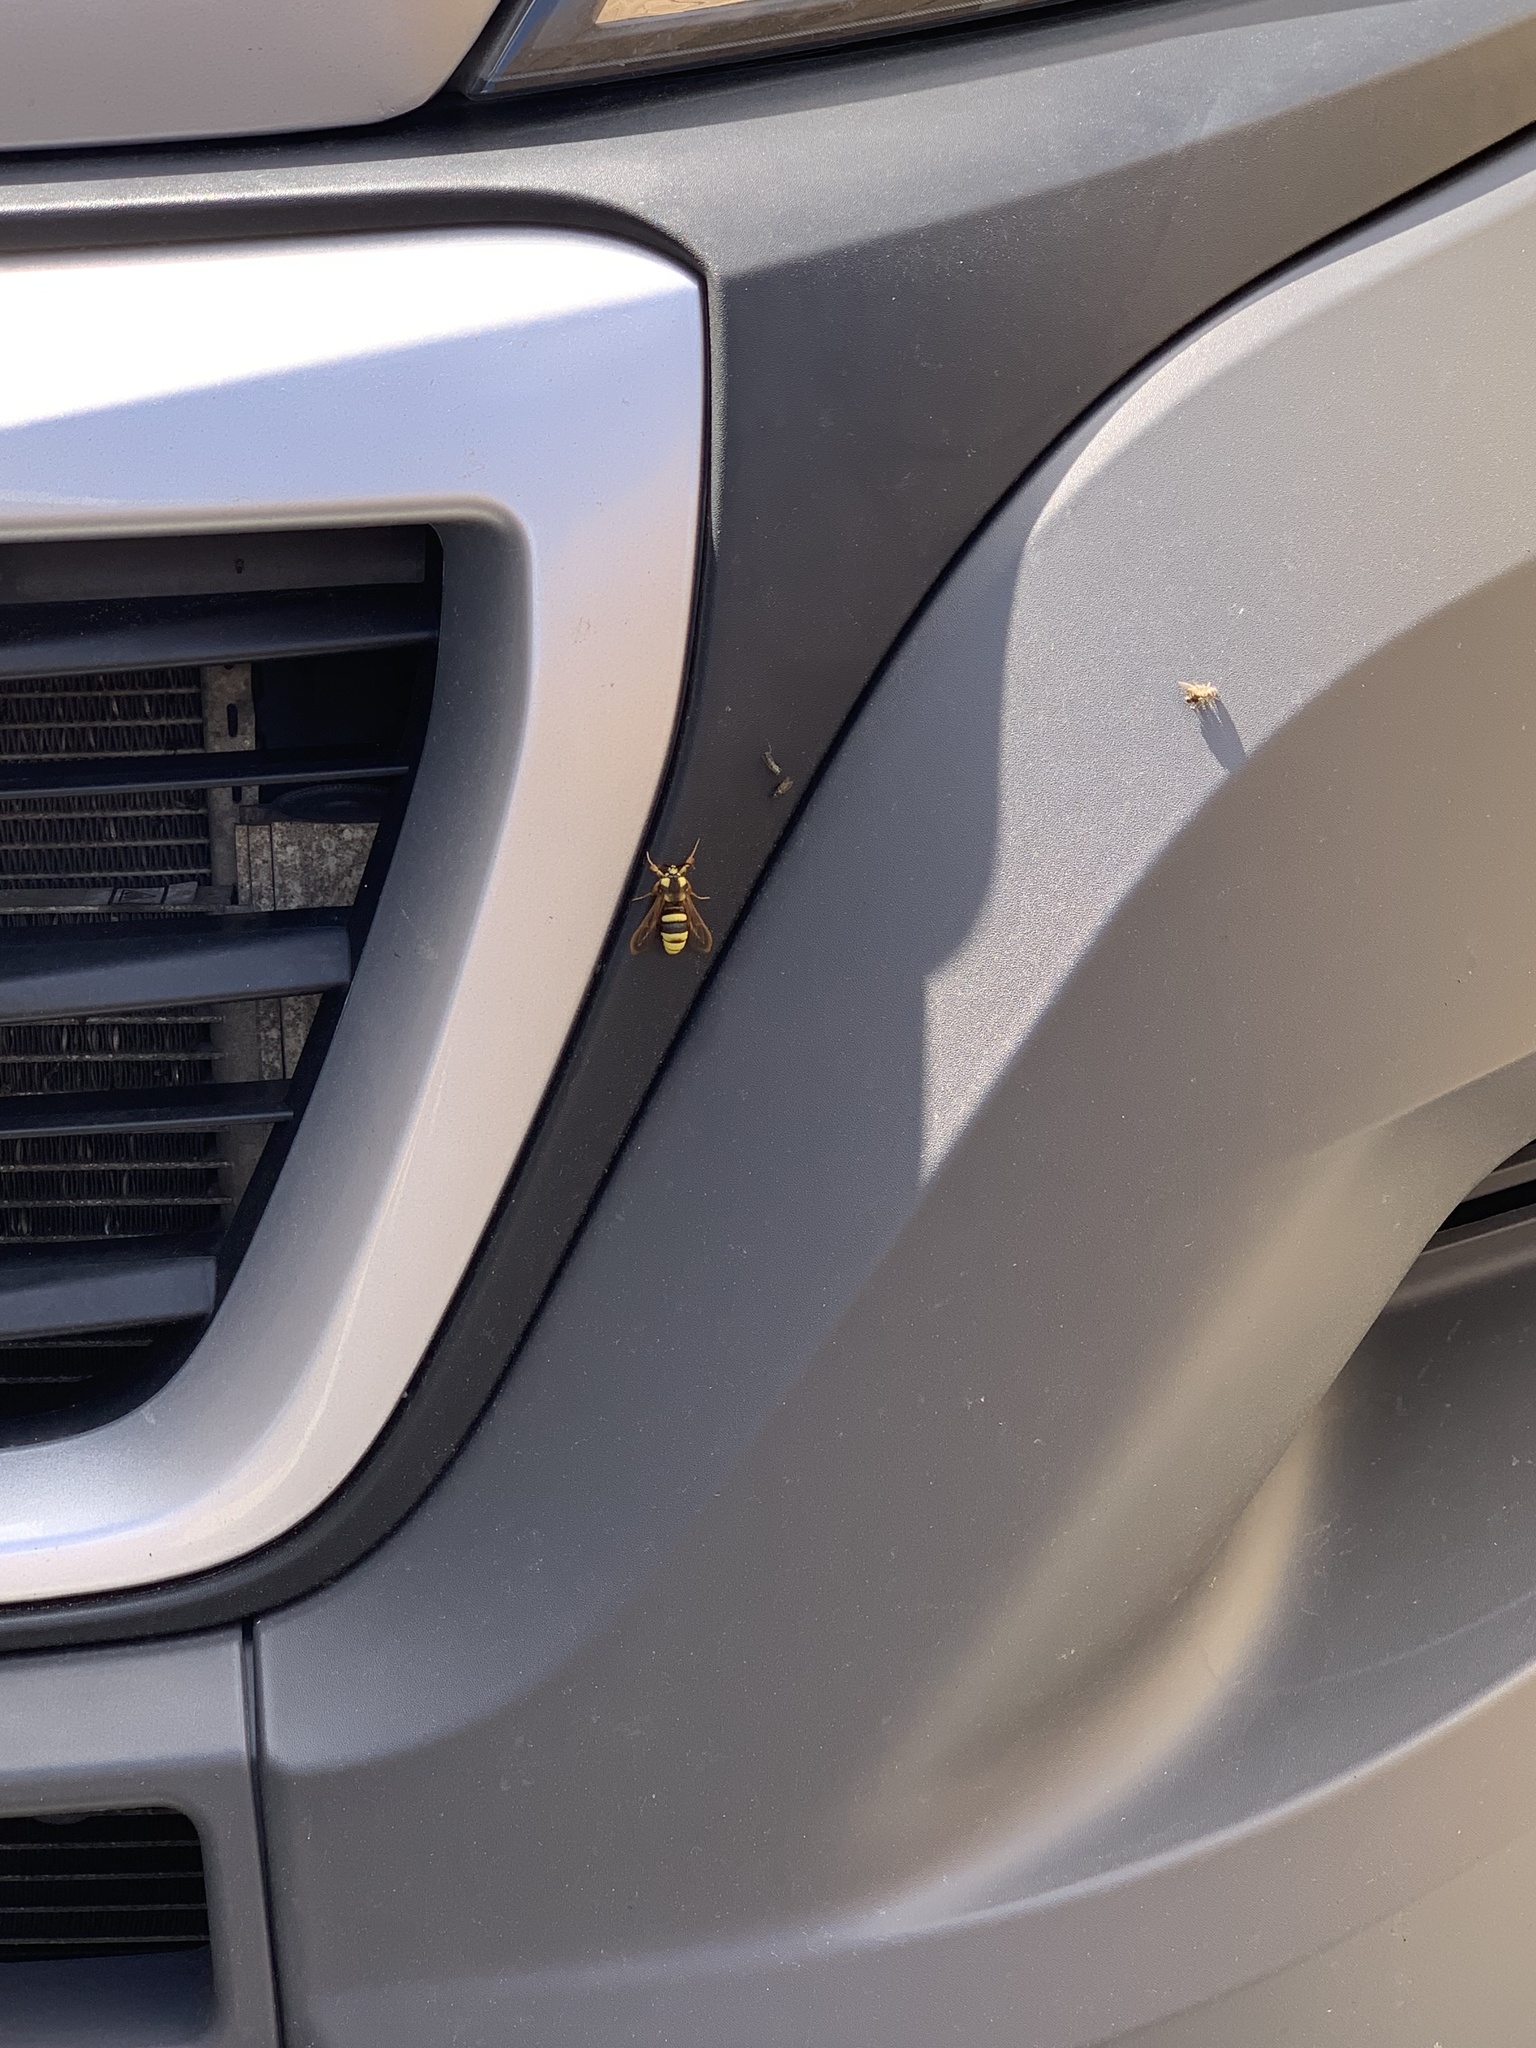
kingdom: Animalia
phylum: Arthropoda
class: Insecta
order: Lepidoptera
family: Sesiidae
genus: Sesia
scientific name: Sesia apiformis
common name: Hornet moth
